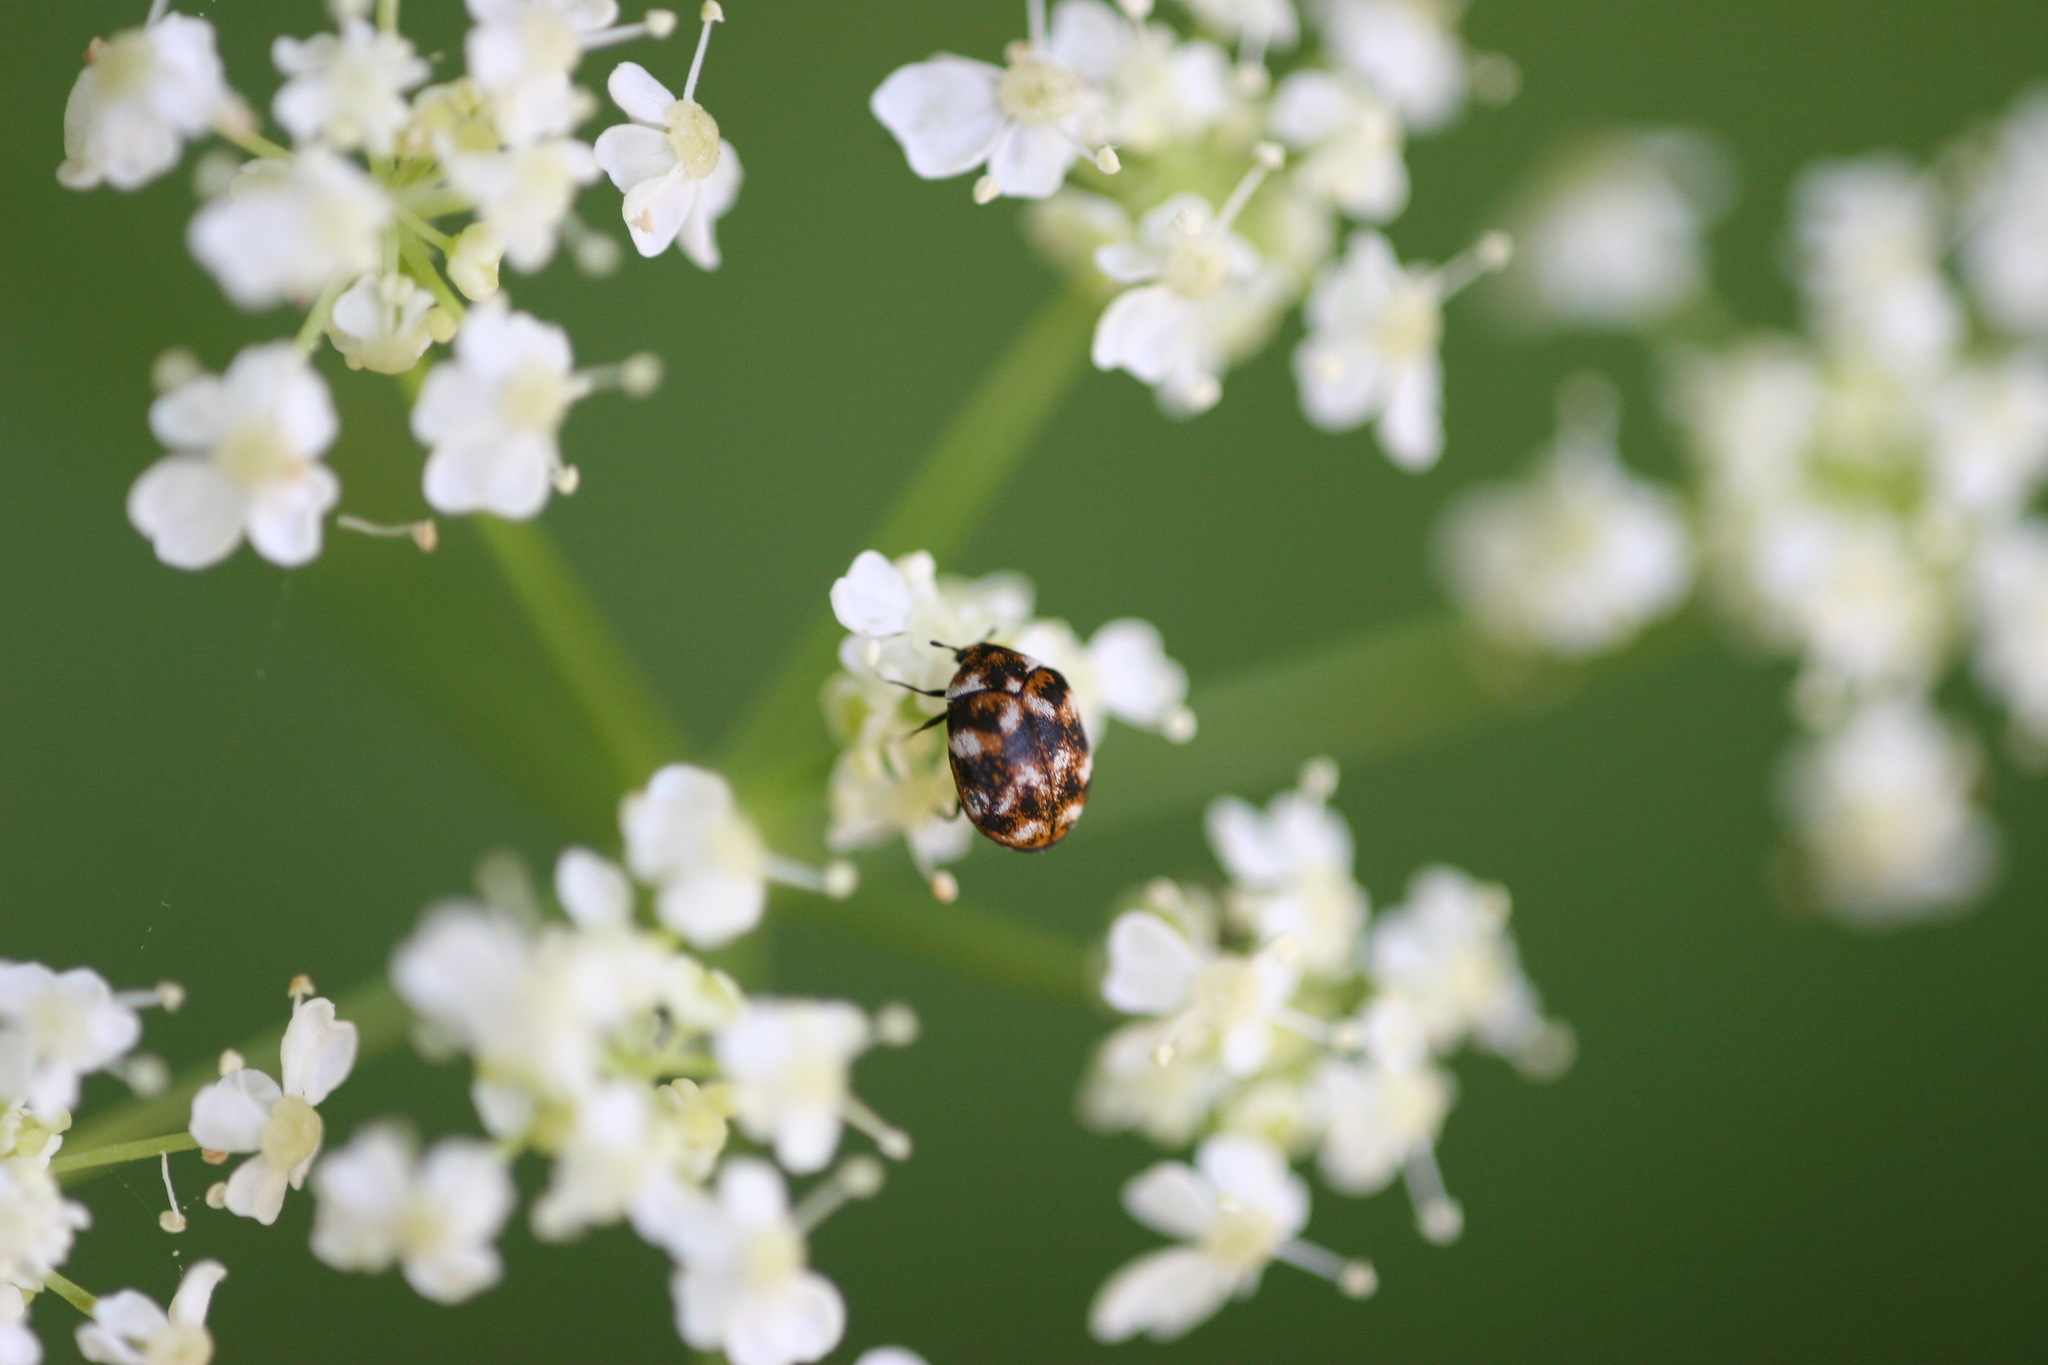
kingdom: Animalia
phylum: Arthropoda
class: Insecta
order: Coleoptera
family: Dermestidae
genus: Anthrenus
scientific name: Anthrenus verbasci
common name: Varied carpet beetle
